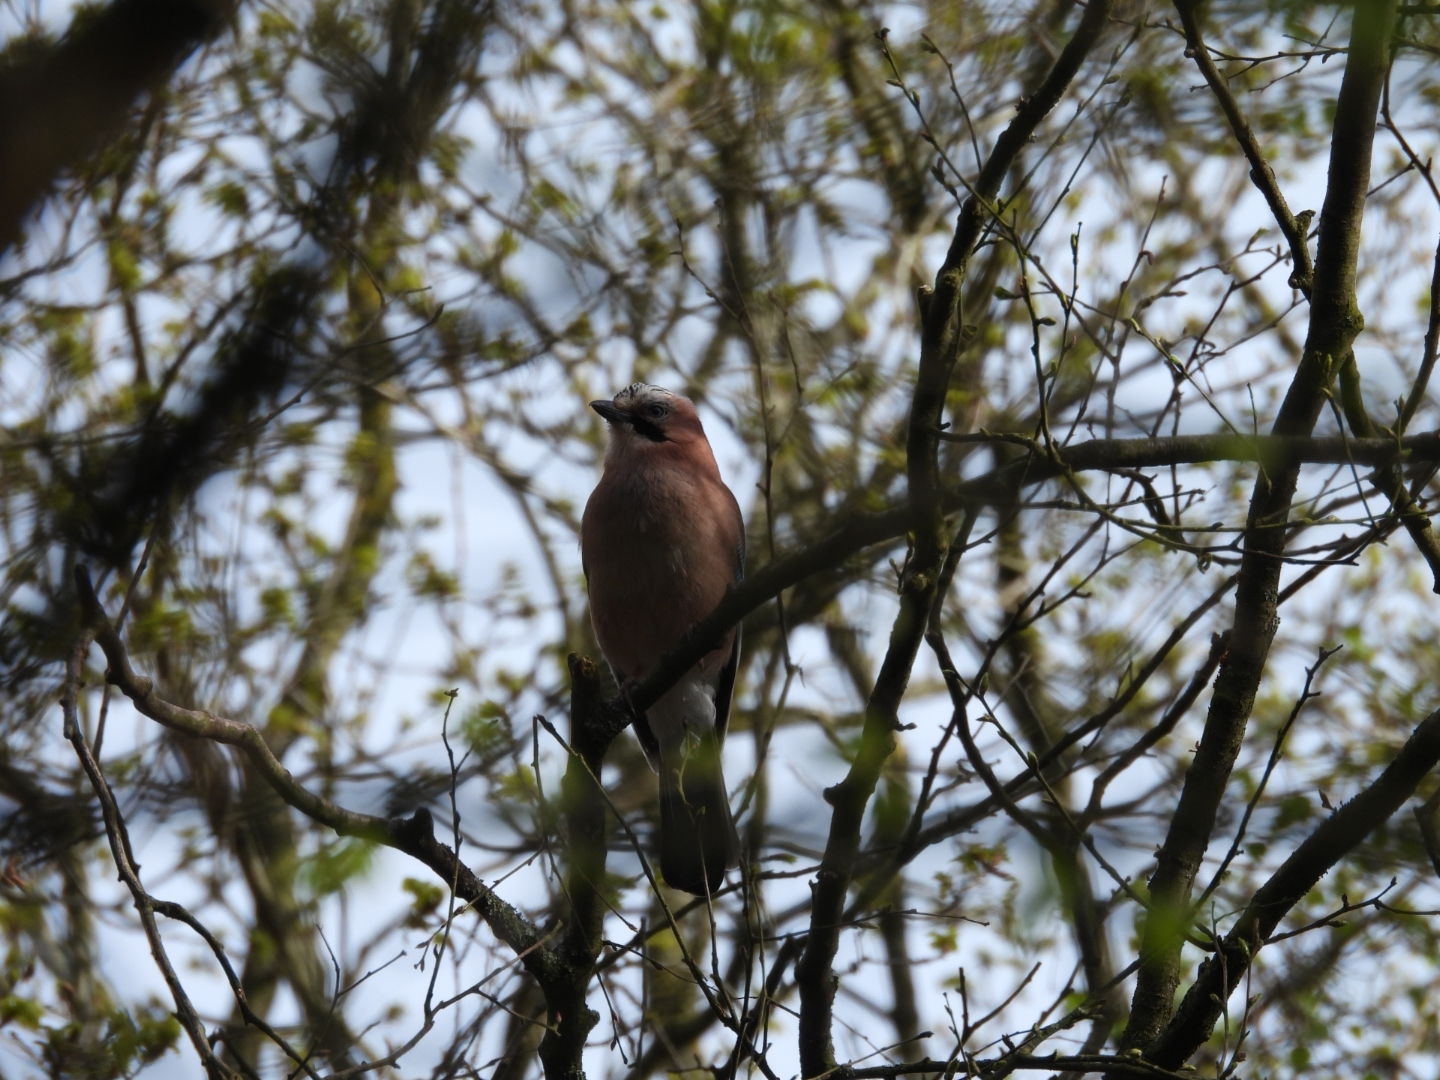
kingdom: Animalia
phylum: Chordata
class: Aves
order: Passeriformes
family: Corvidae
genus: Garrulus
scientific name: Garrulus glandarius
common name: Eurasian jay
